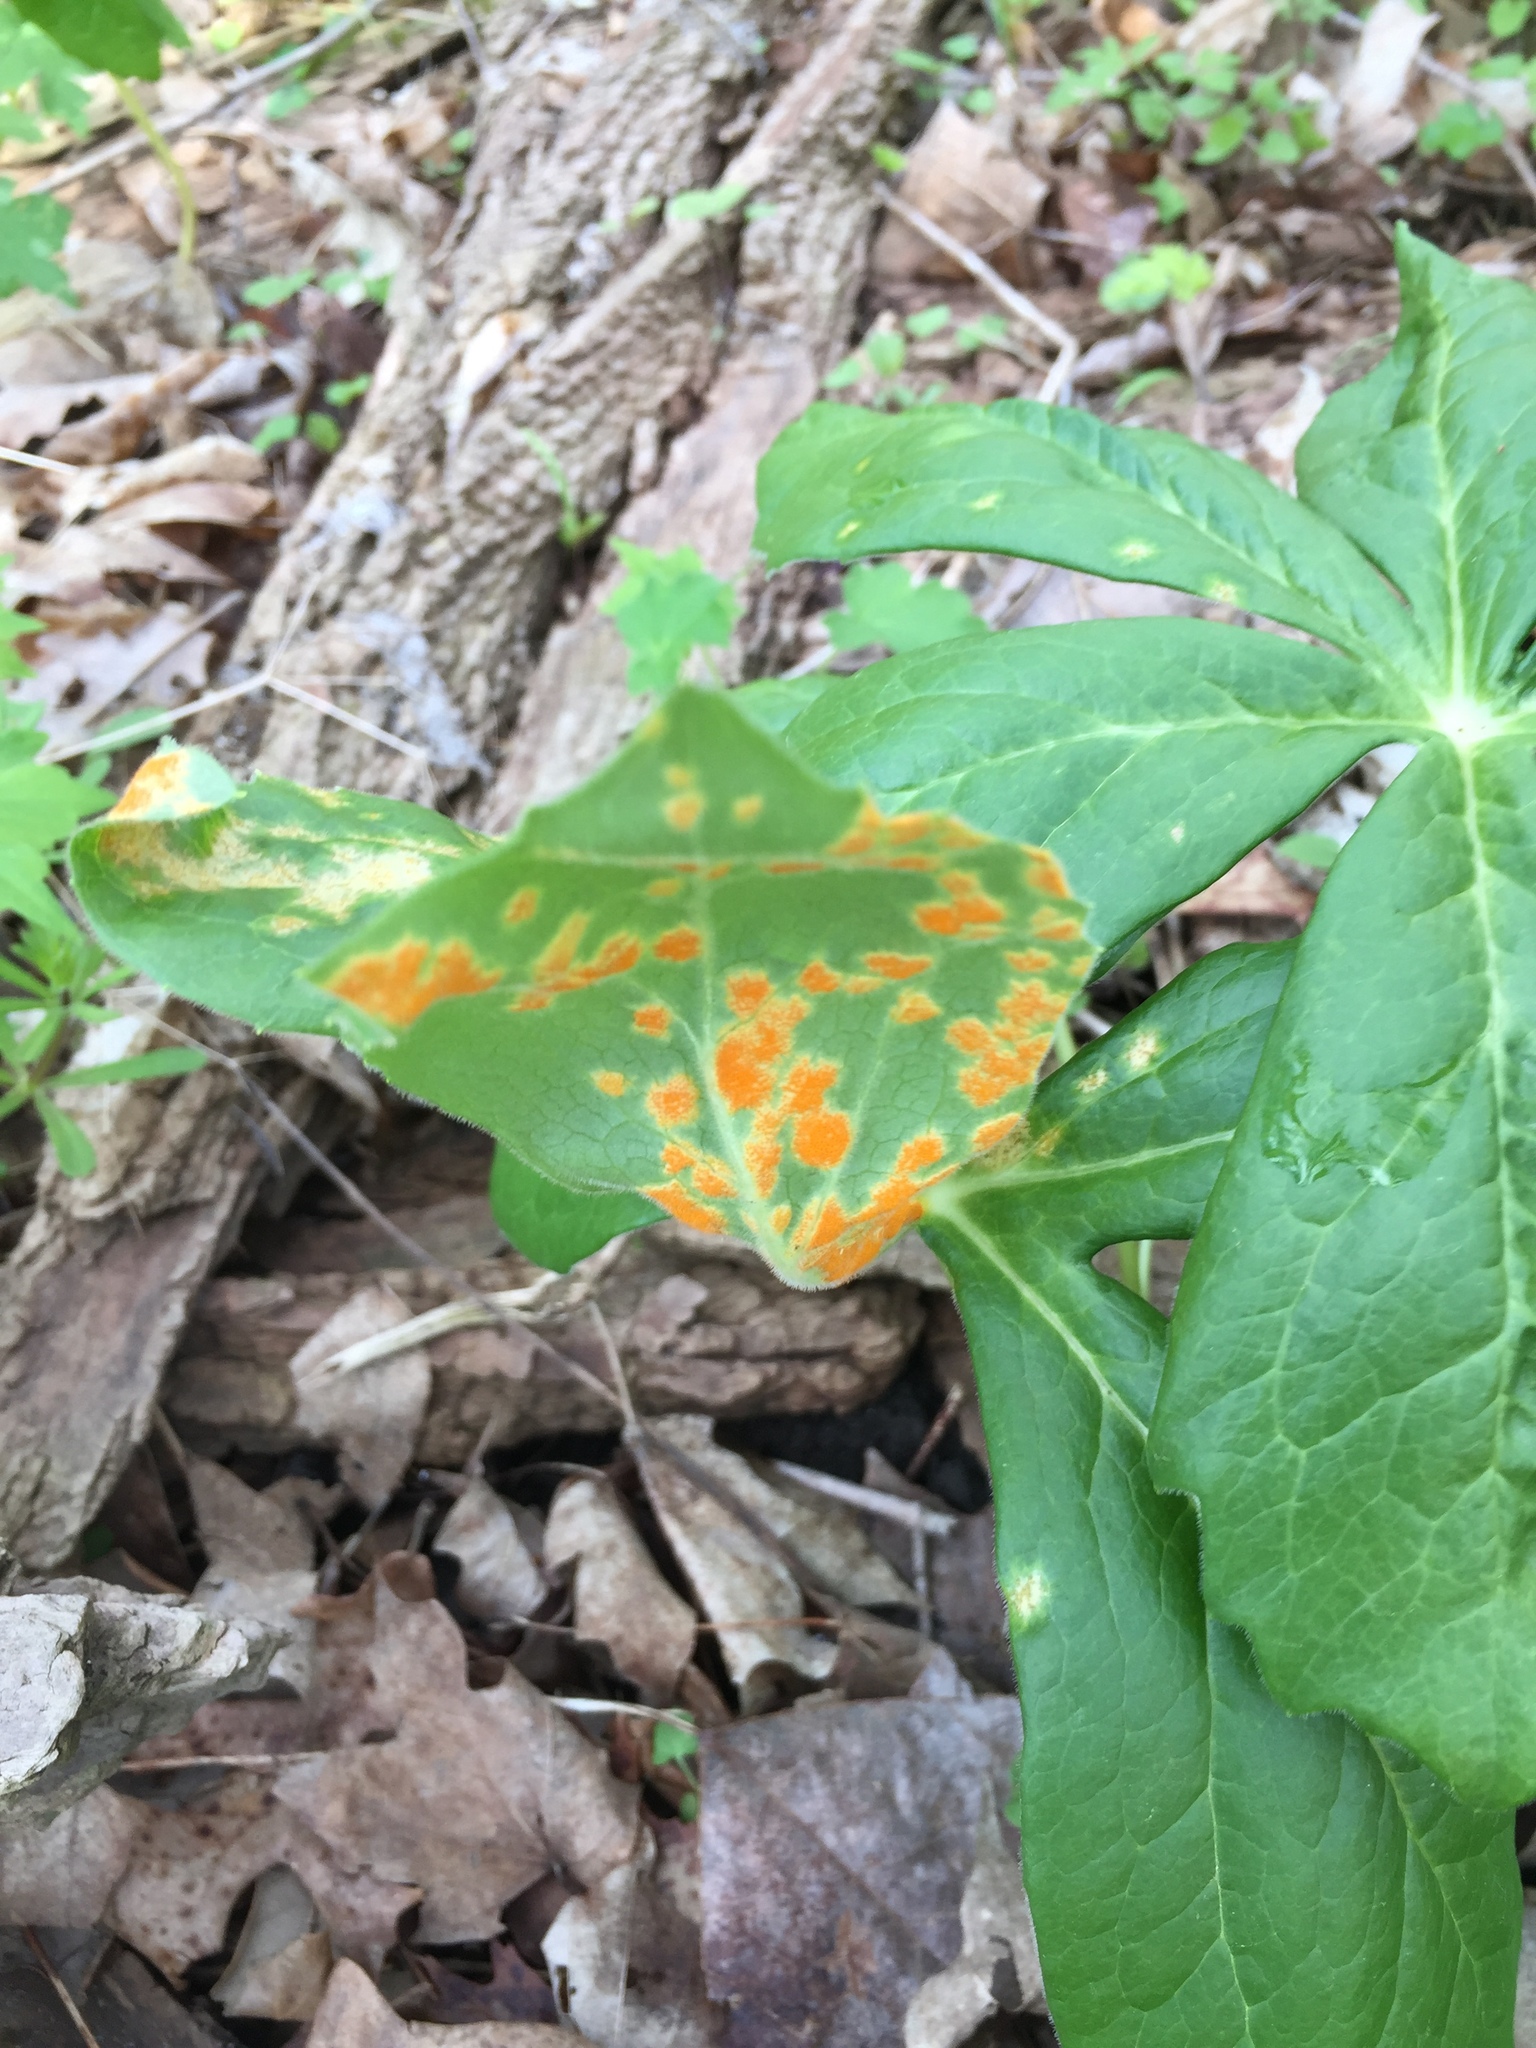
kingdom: Fungi
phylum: Basidiomycota
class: Pucciniomycetes
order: Pucciniales
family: Pucciniaceae
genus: Puccinia
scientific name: Puccinia podophylli
